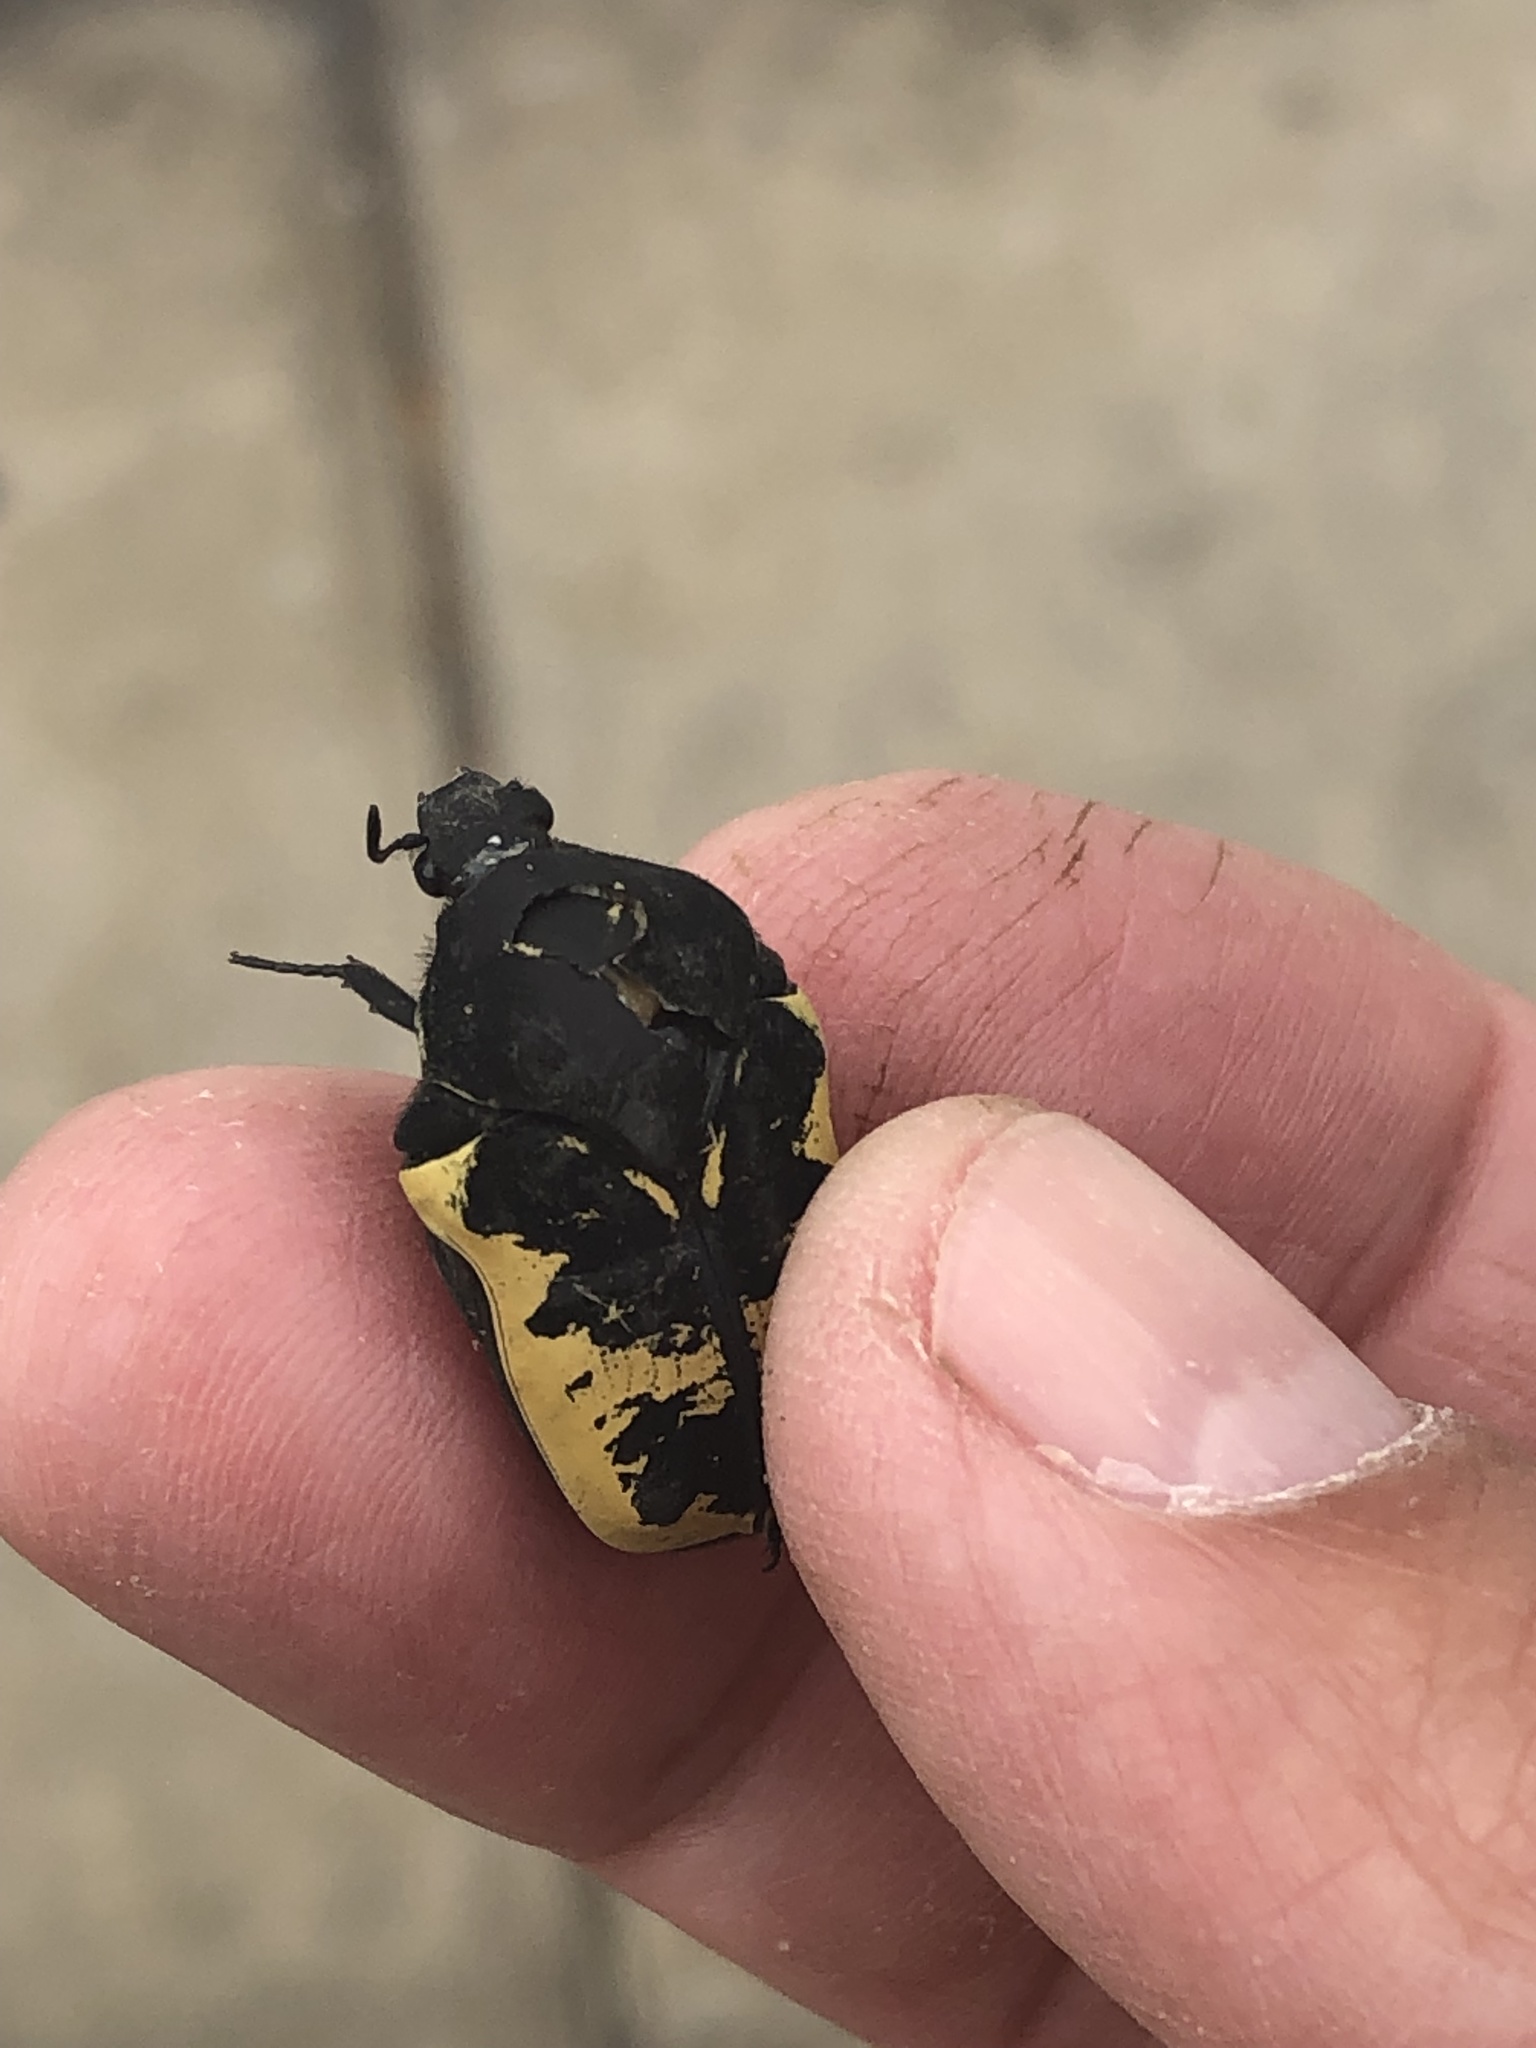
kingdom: Animalia
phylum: Arthropoda
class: Insecta
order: Coleoptera
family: Scarabaeidae
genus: Gymnetis
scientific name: Gymnetis merops
